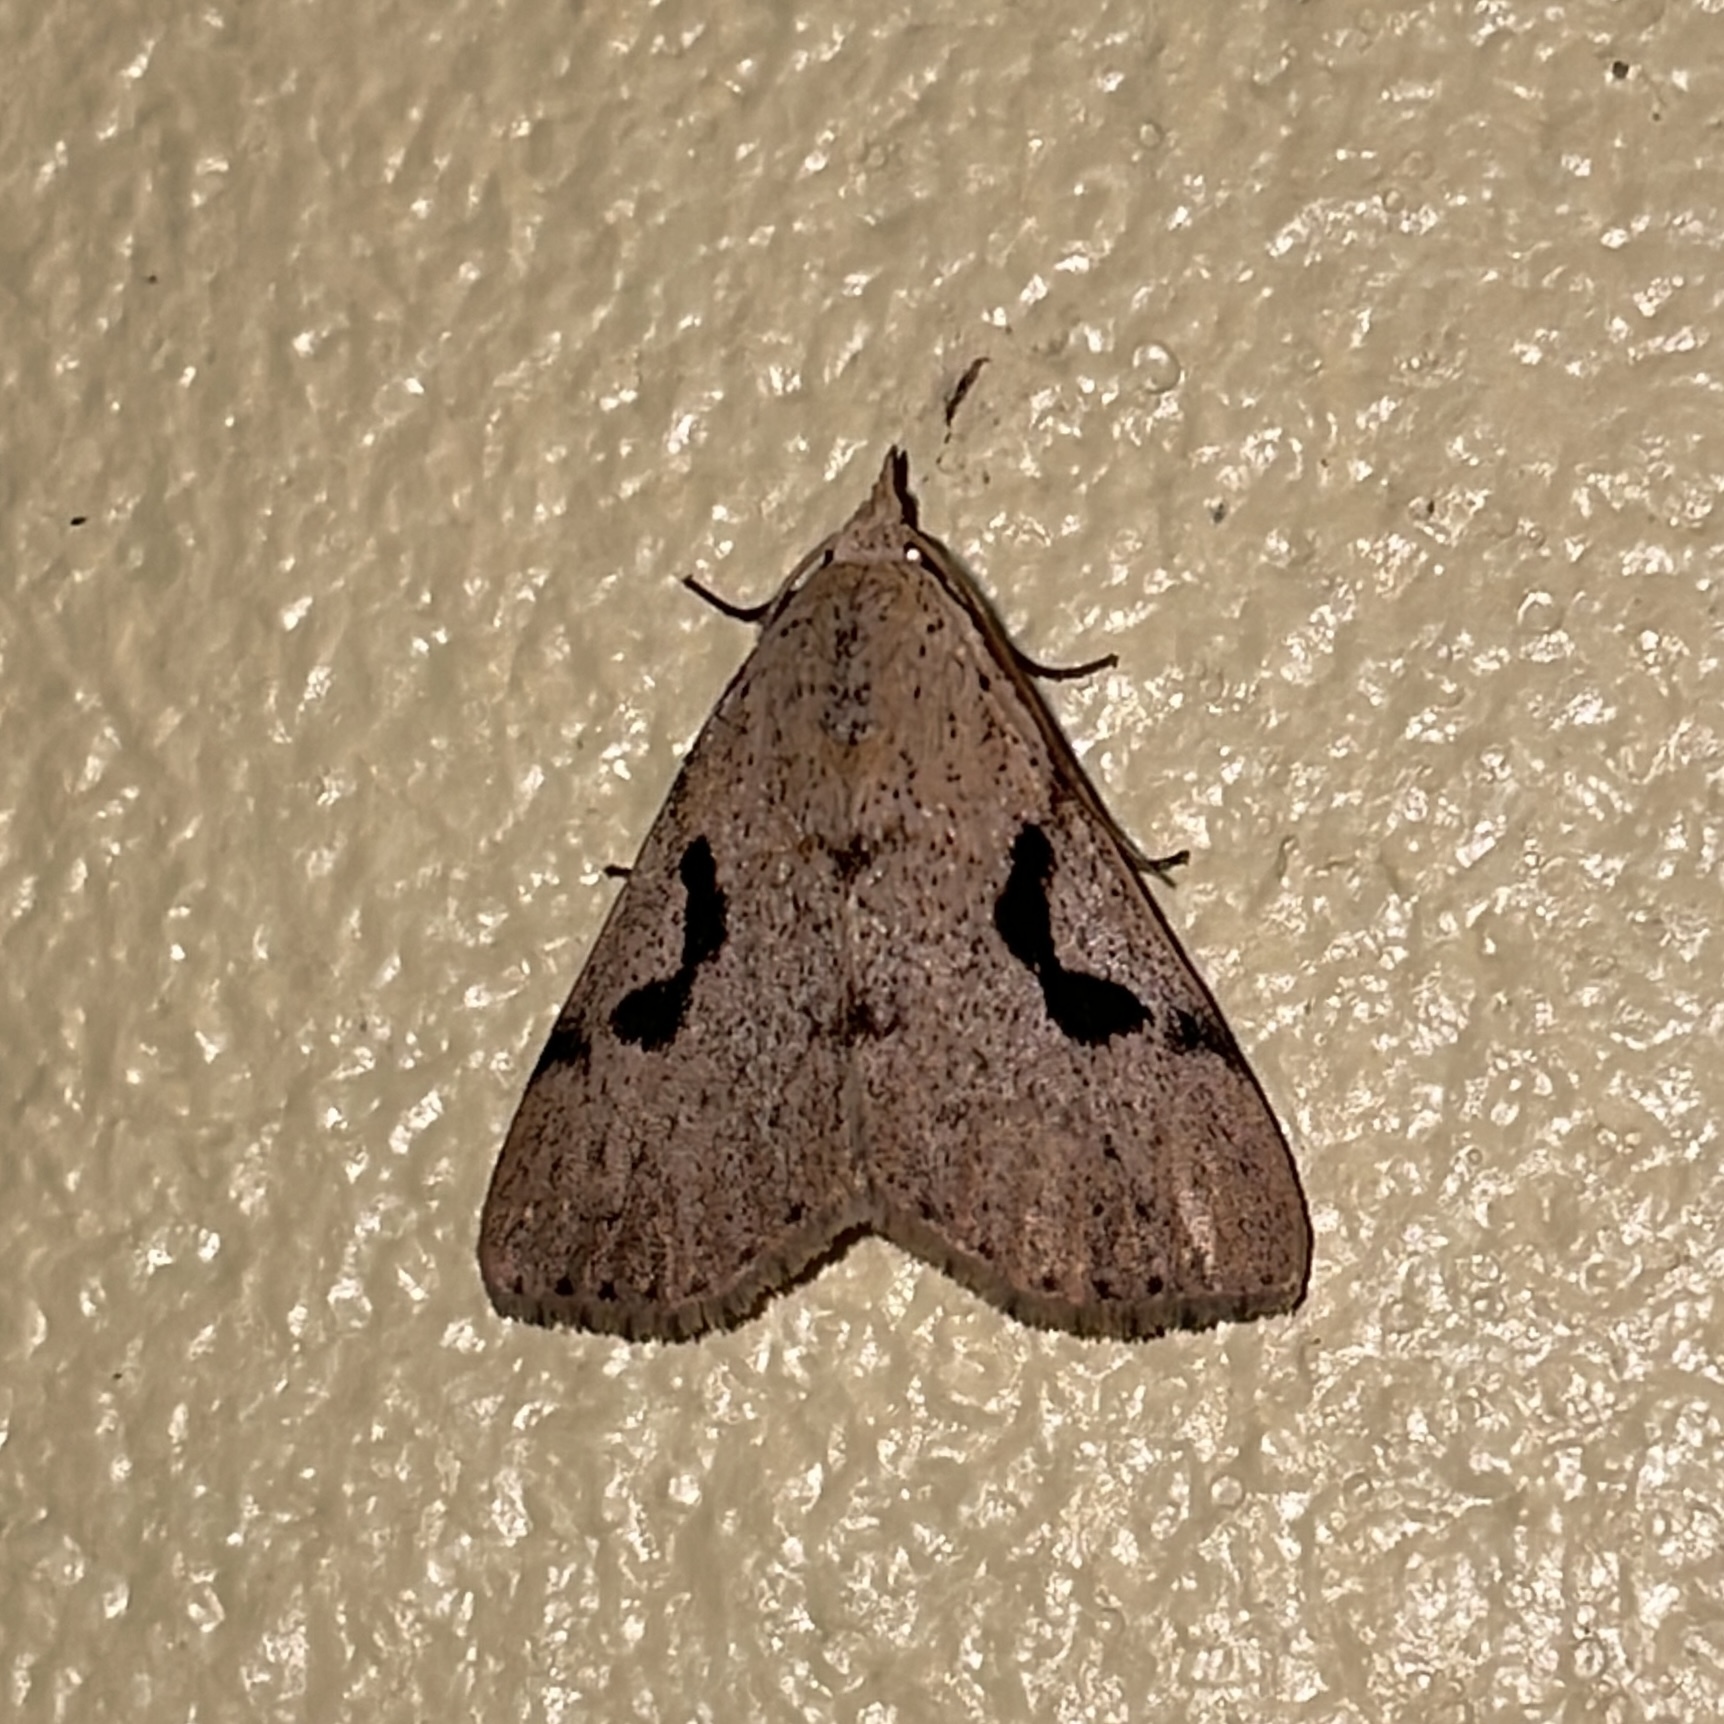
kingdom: Animalia
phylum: Arthropoda
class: Insecta
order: Lepidoptera
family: Erebidae
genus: Acanthermia
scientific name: Acanthermia concatenalis
